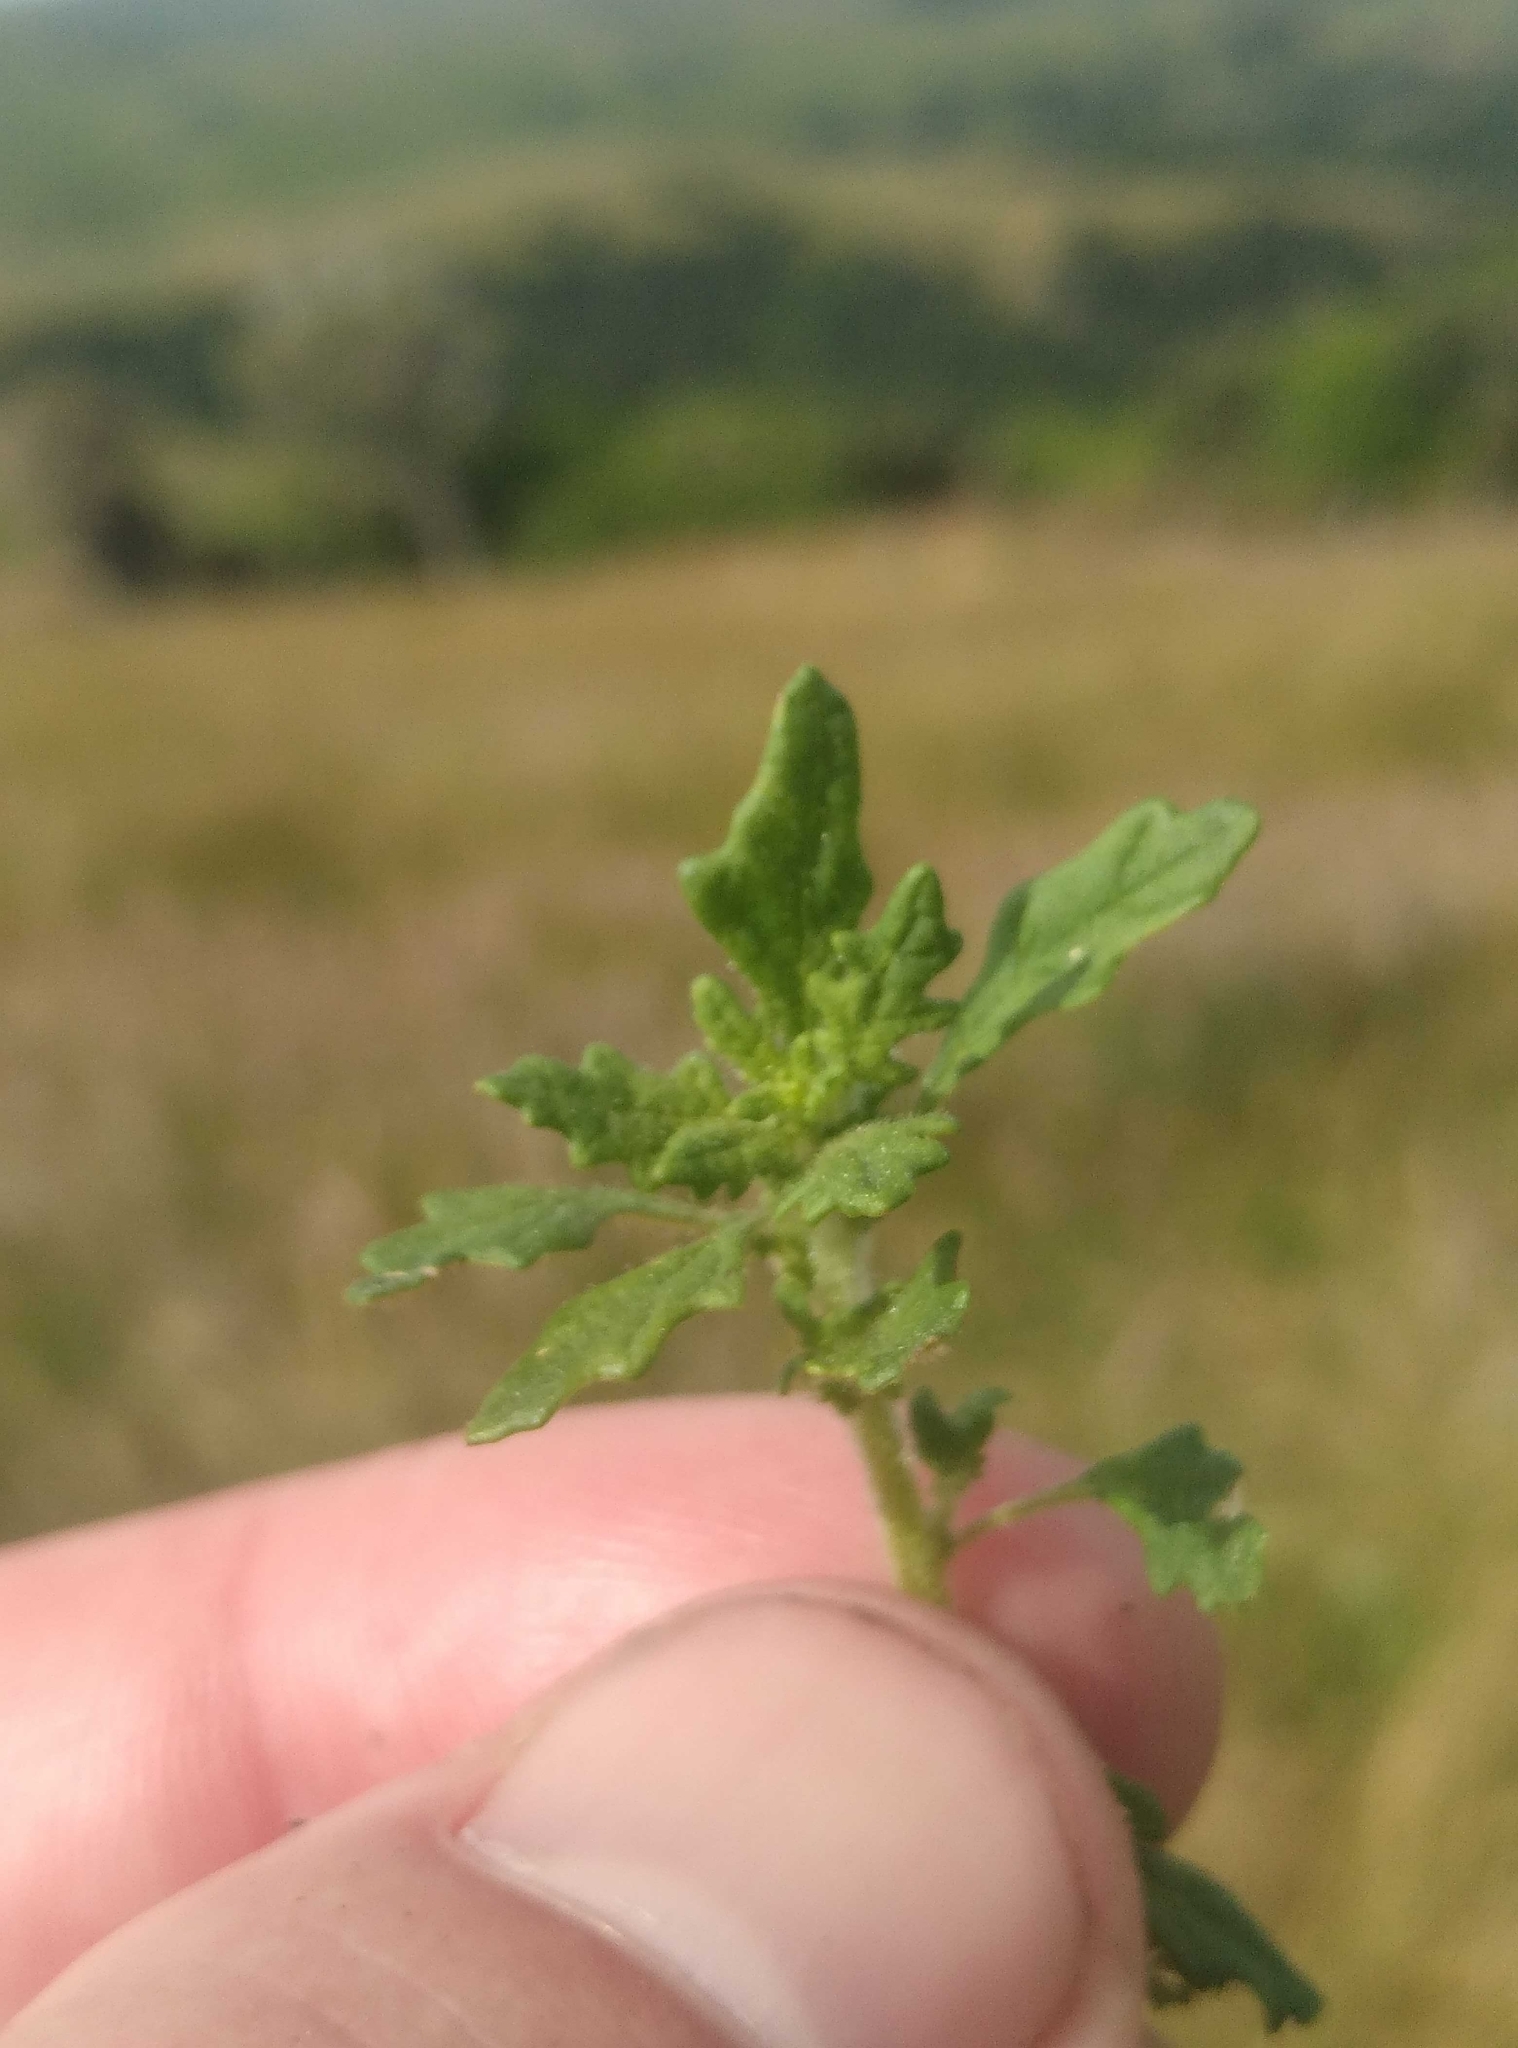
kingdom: Plantae
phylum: Tracheophyta
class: Magnoliopsida
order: Caryophyllales
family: Amaranthaceae
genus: Dysphania
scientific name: Dysphania pumilio
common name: Clammy goosefoot
